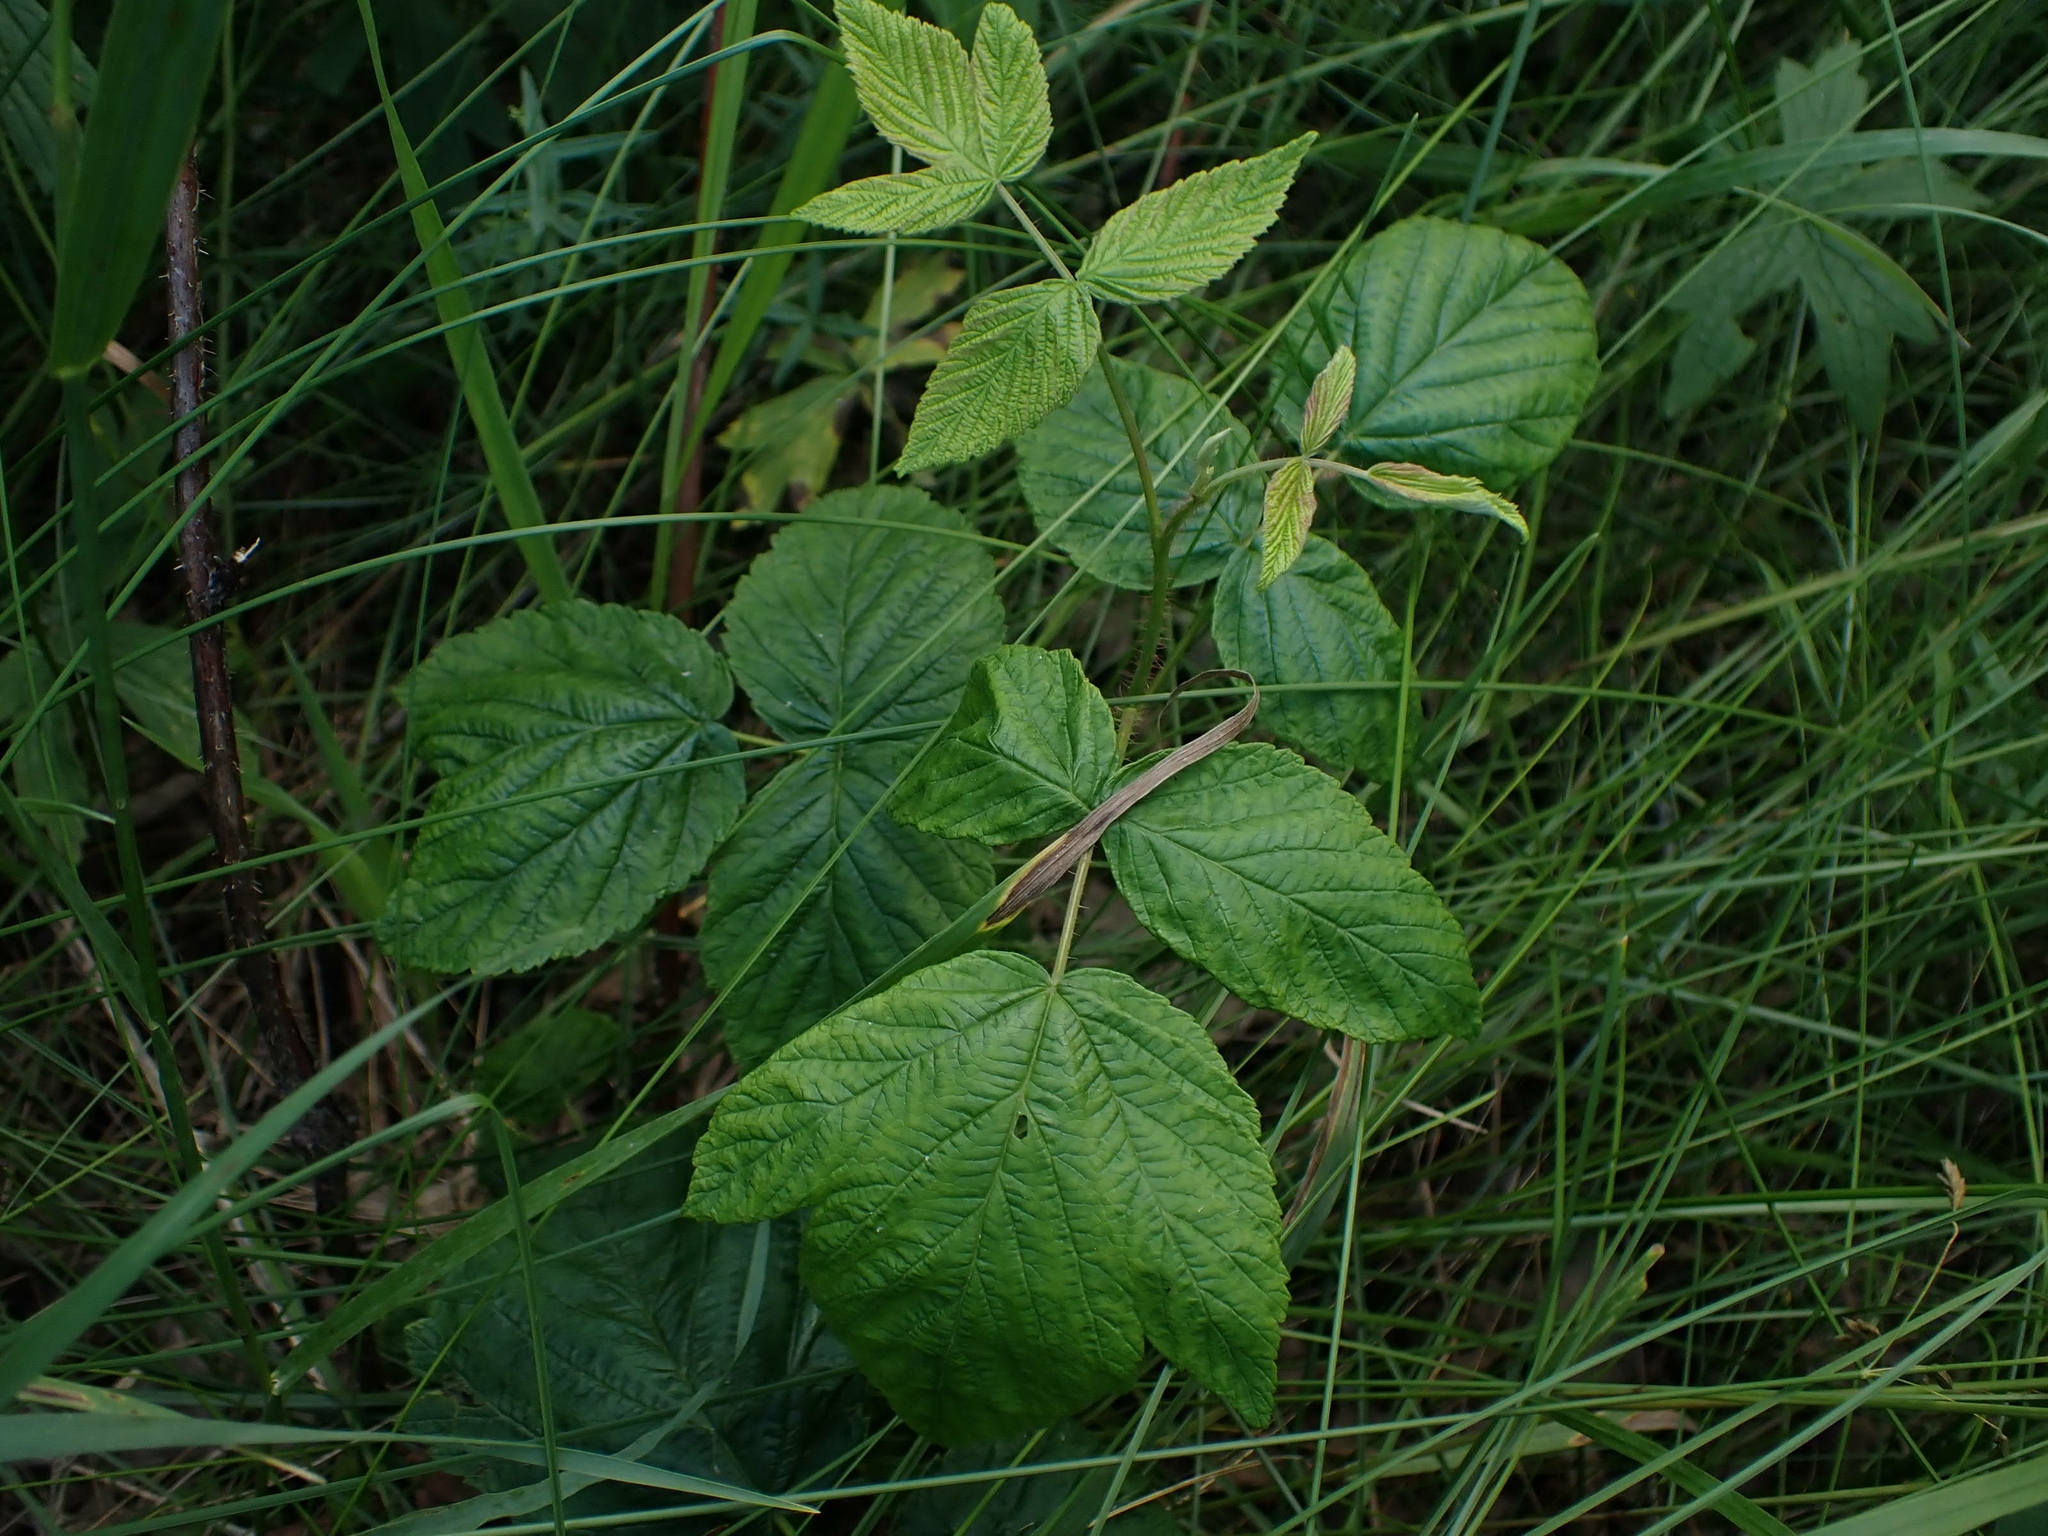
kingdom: Plantae
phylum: Tracheophyta
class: Magnoliopsida
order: Rosales
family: Rosaceae
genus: Rubus
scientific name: Rubus idaeus
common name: Raspberry
